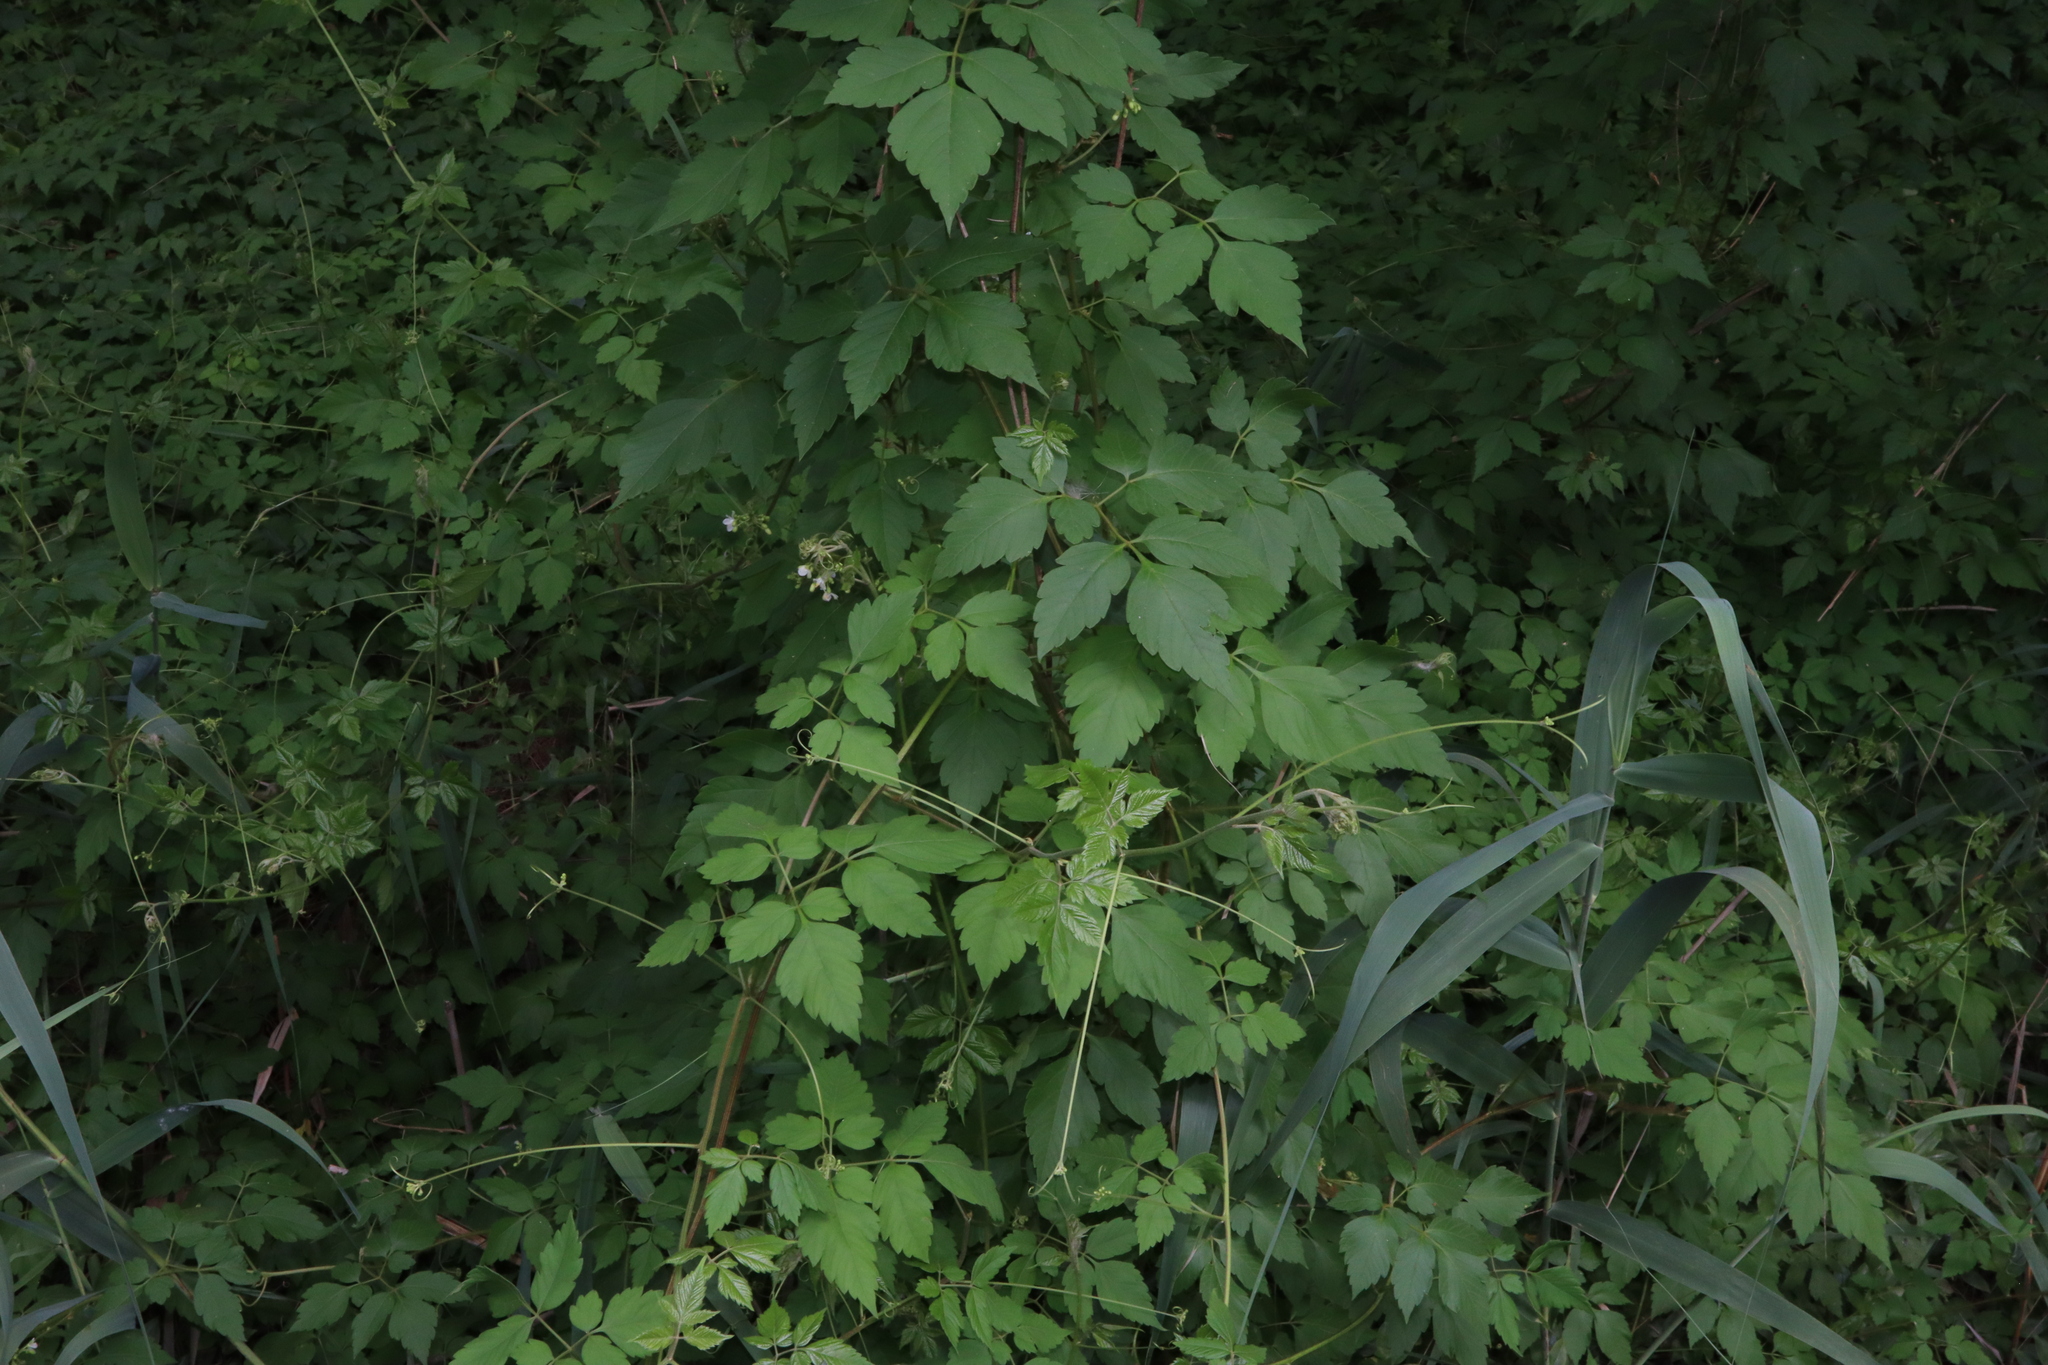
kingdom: Plantae
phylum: Tracheophyta
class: Magnoliopsida
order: Sapindales
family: Sapindaceae
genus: Cardiospermum
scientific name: Cardiospermum grandiflorum
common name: Balloon vine
